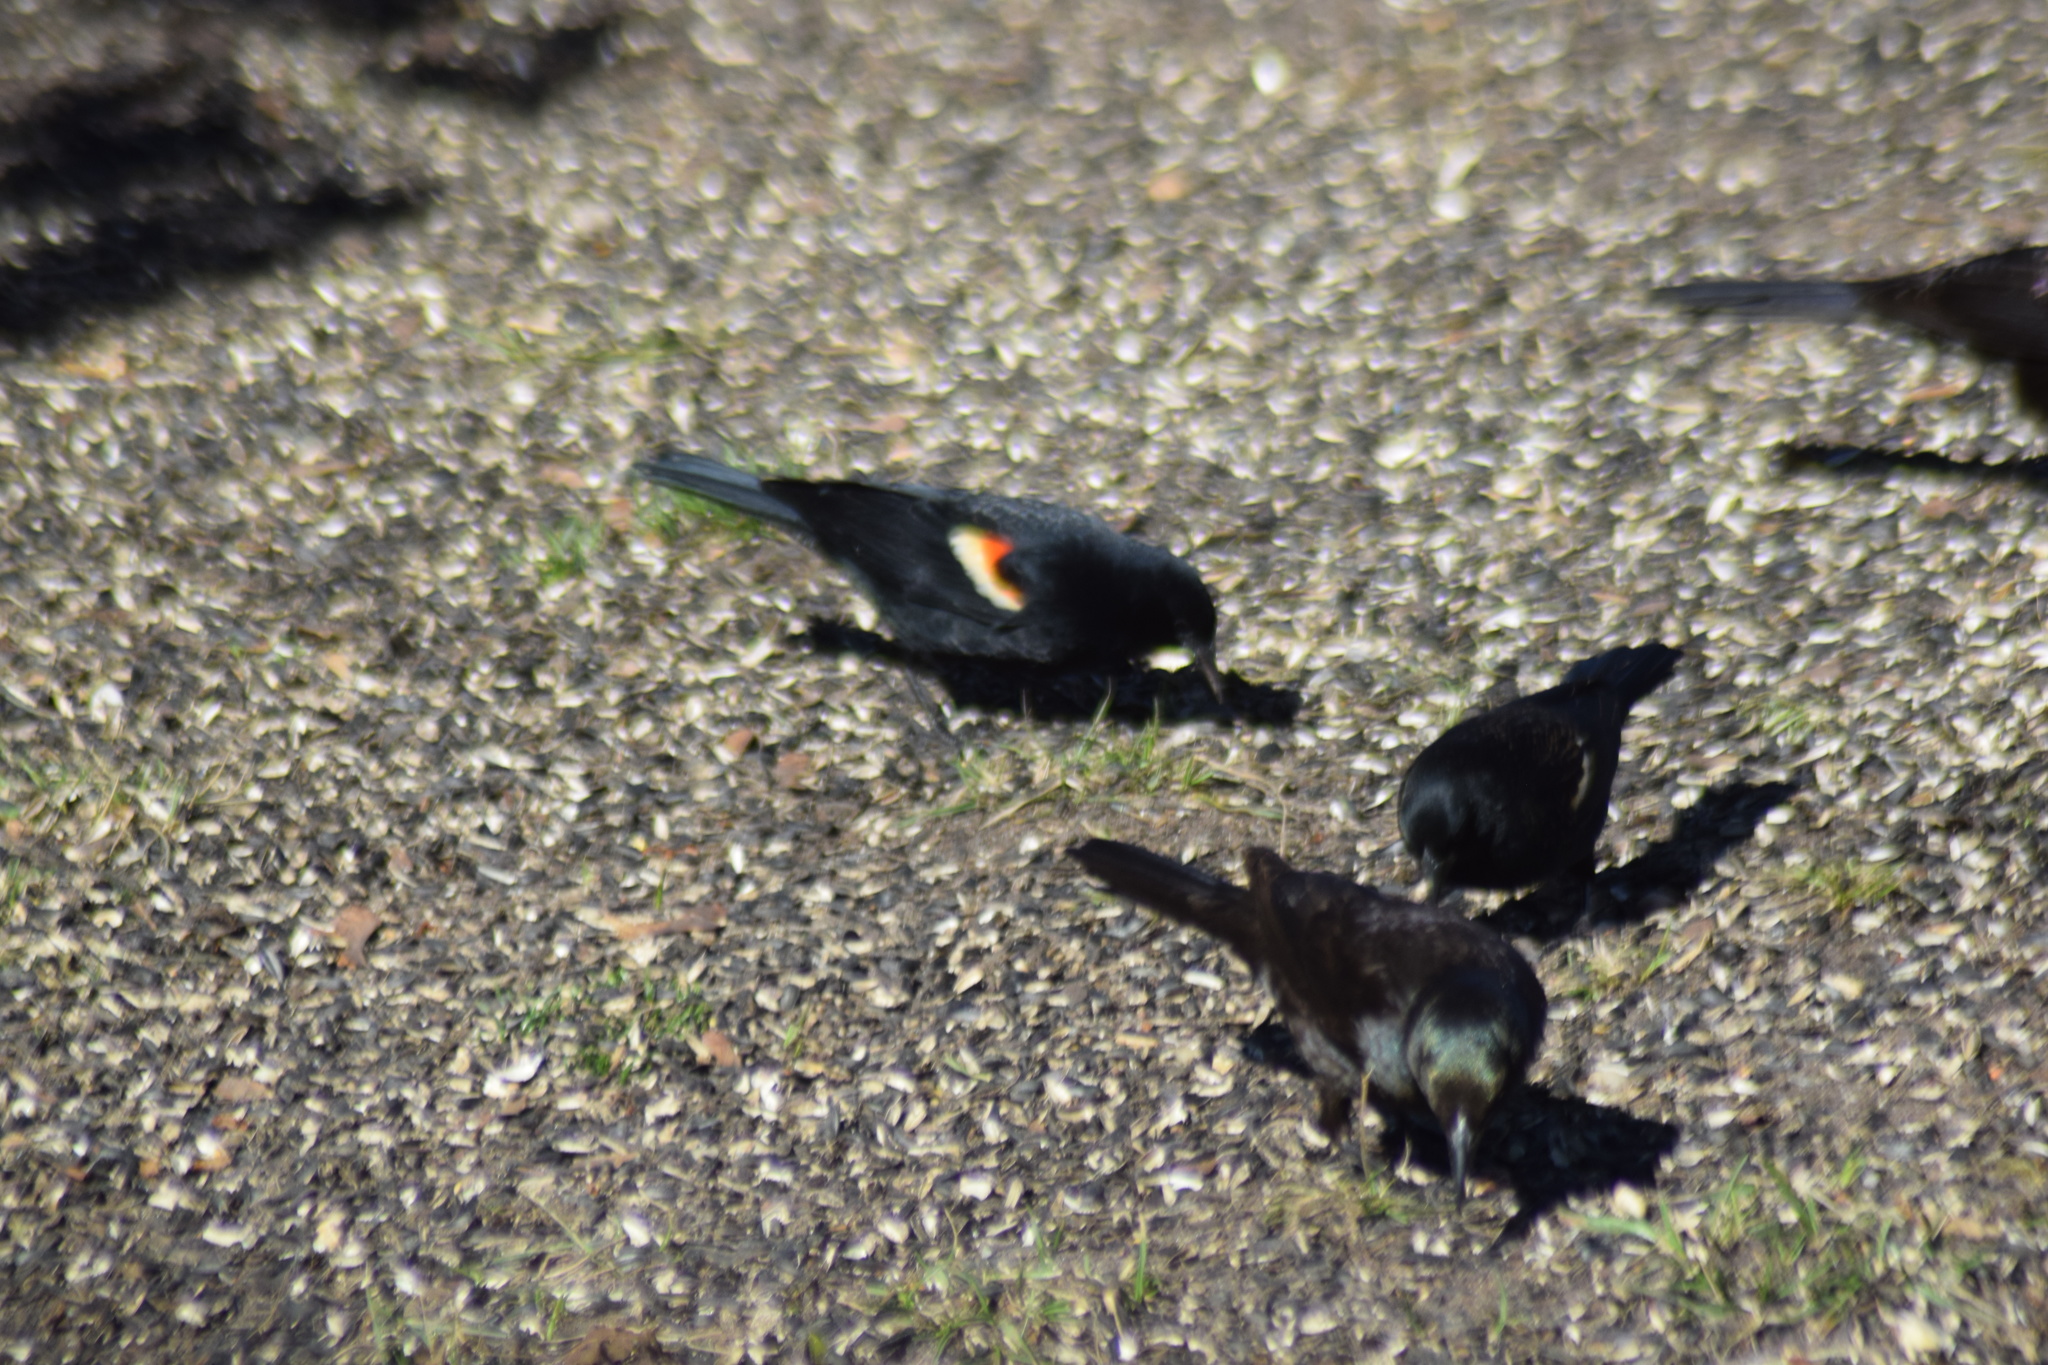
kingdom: Animalia
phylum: Chordata
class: Aves
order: Passeriformes
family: Icteridae
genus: Agelaius
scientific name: Agelaius phoeniceus
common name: Red-winged blackbird
